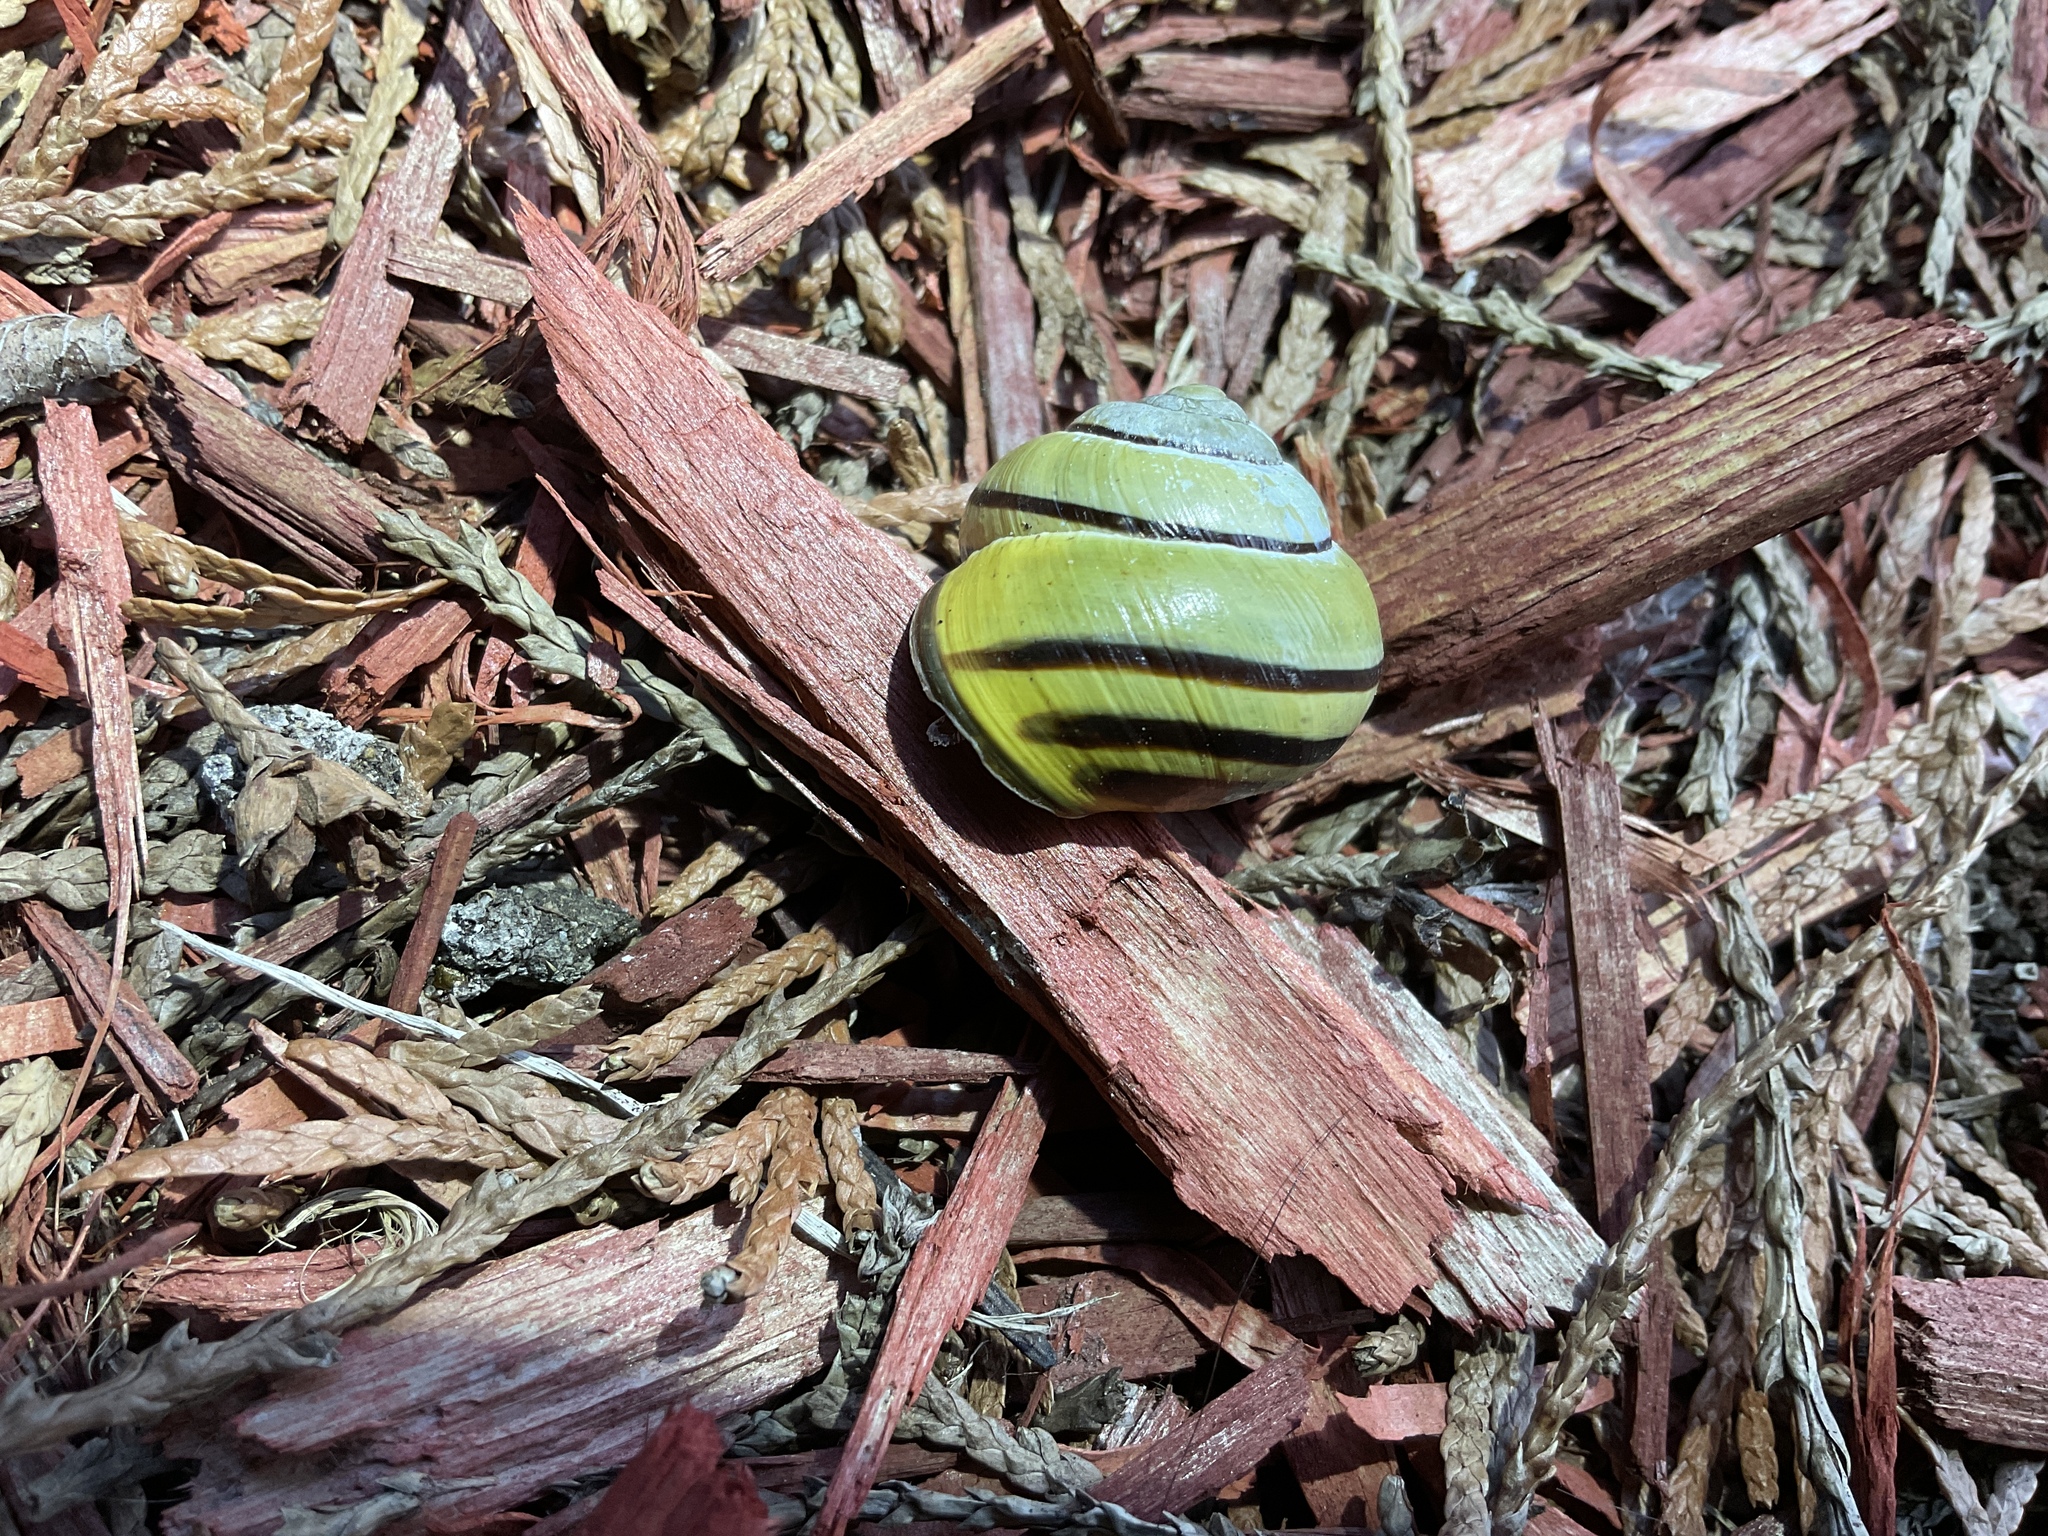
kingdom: Animalia
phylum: Mollusca
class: Gastropoda
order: Stylommatophora
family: Helicidae
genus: Cepaea
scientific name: Cepaea nemoralis
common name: Grovesnail
